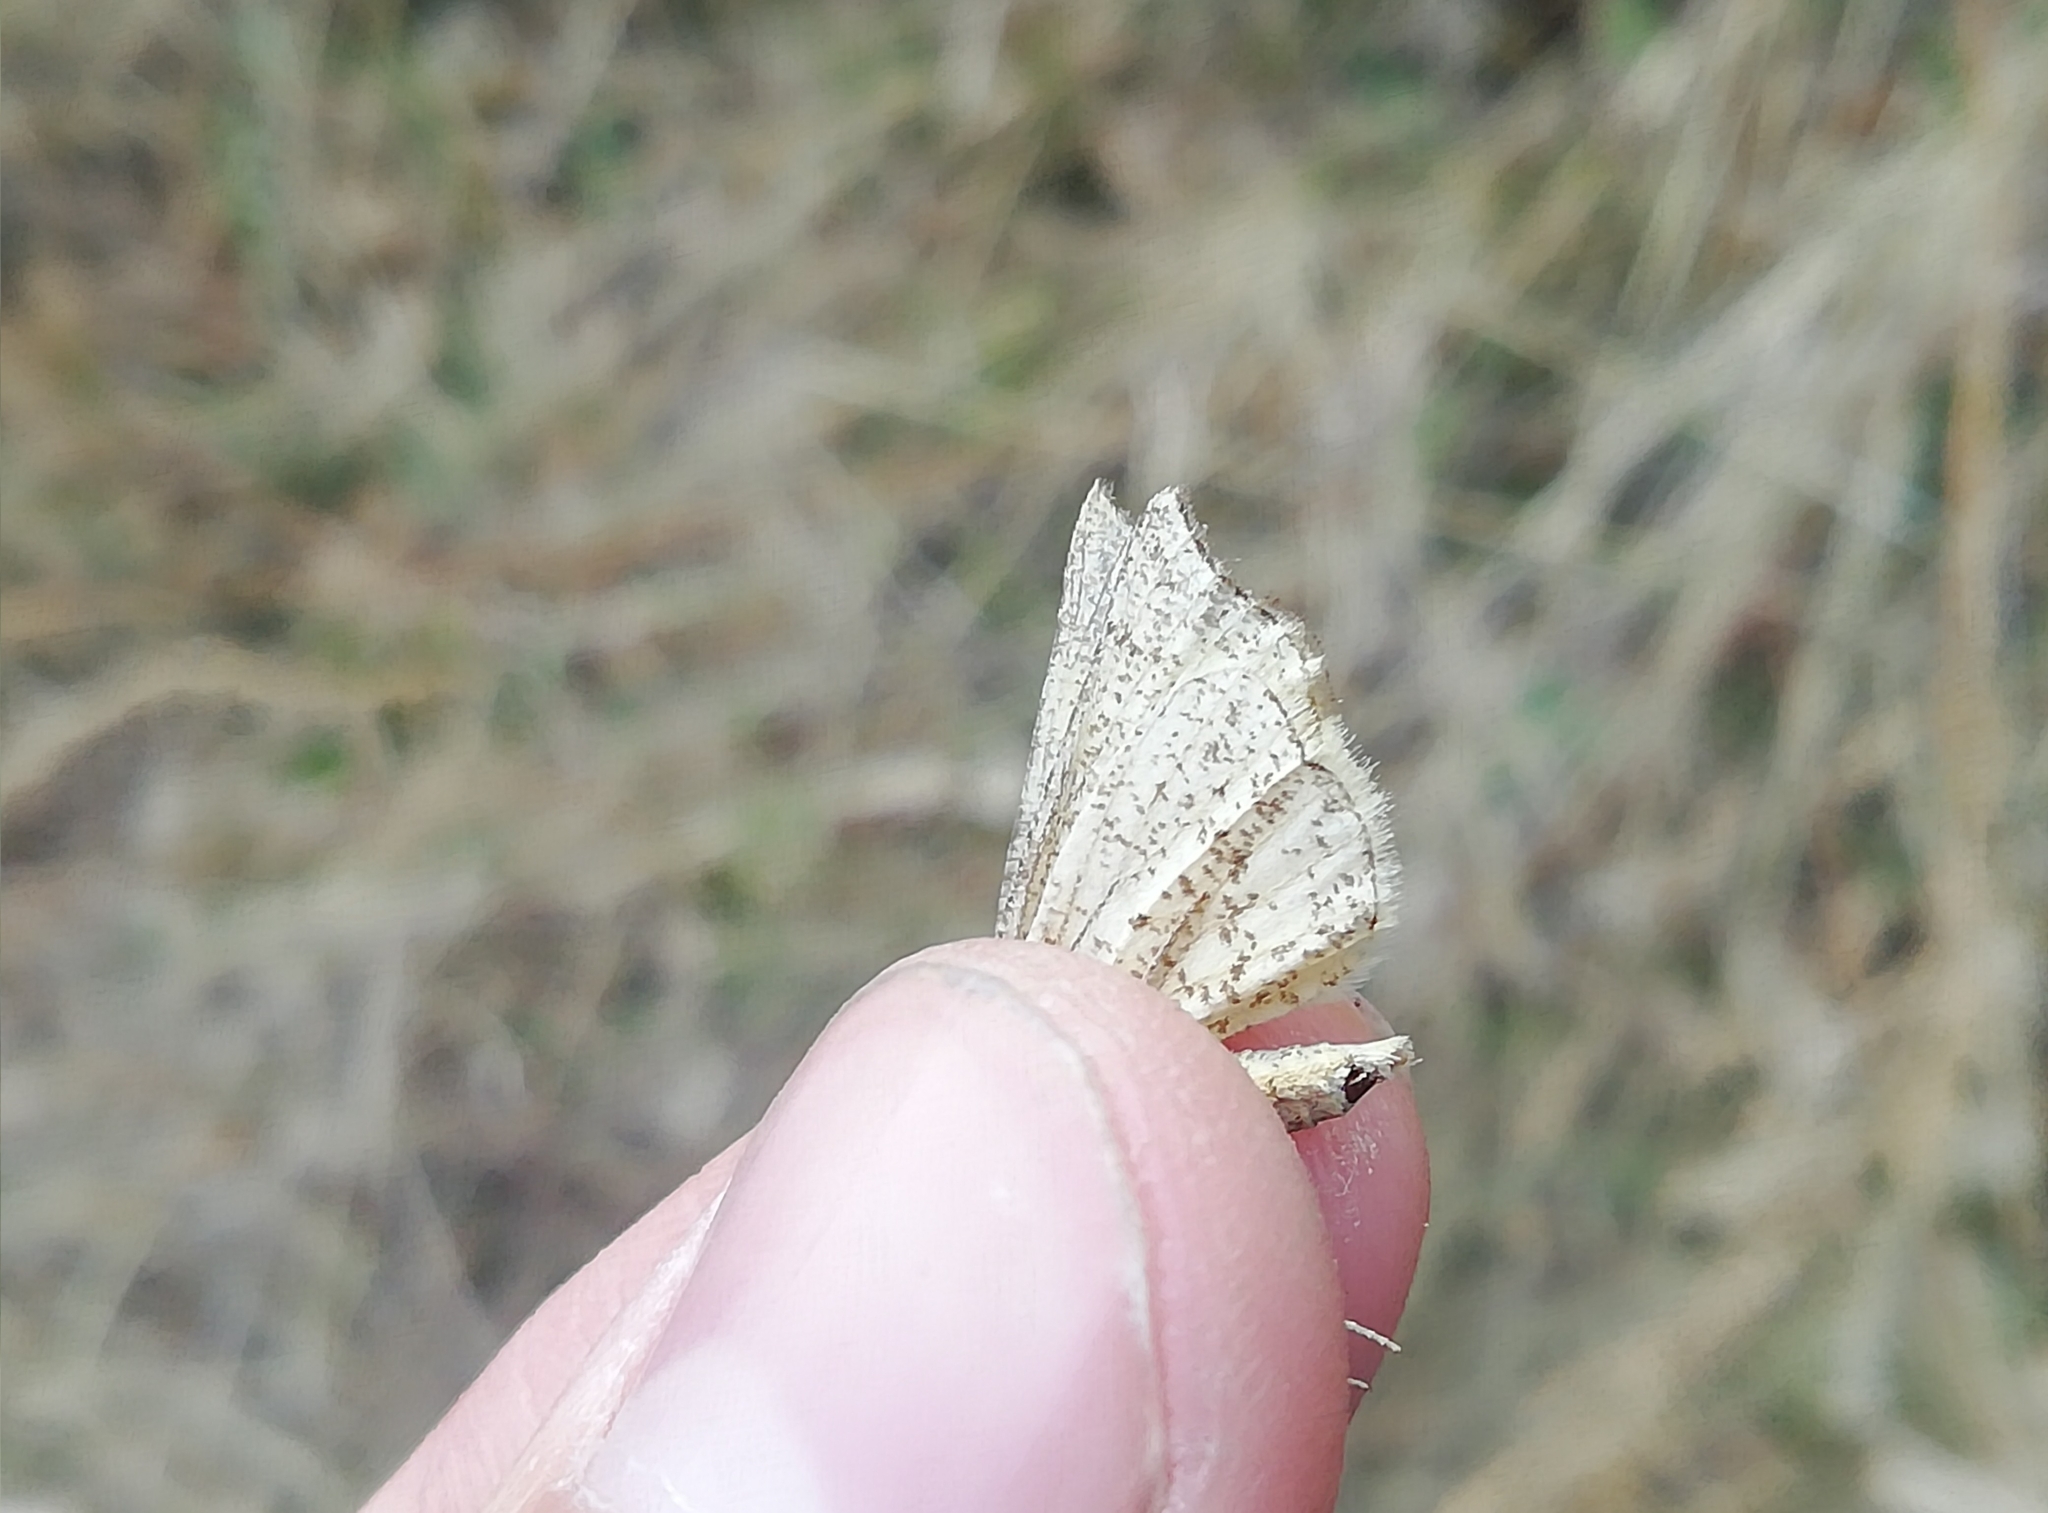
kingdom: Animalia
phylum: Arthropoda
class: Insecta
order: Lepidoptera
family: Geometridae
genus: Hypoxystis
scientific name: Hypoxystis pluviaria
